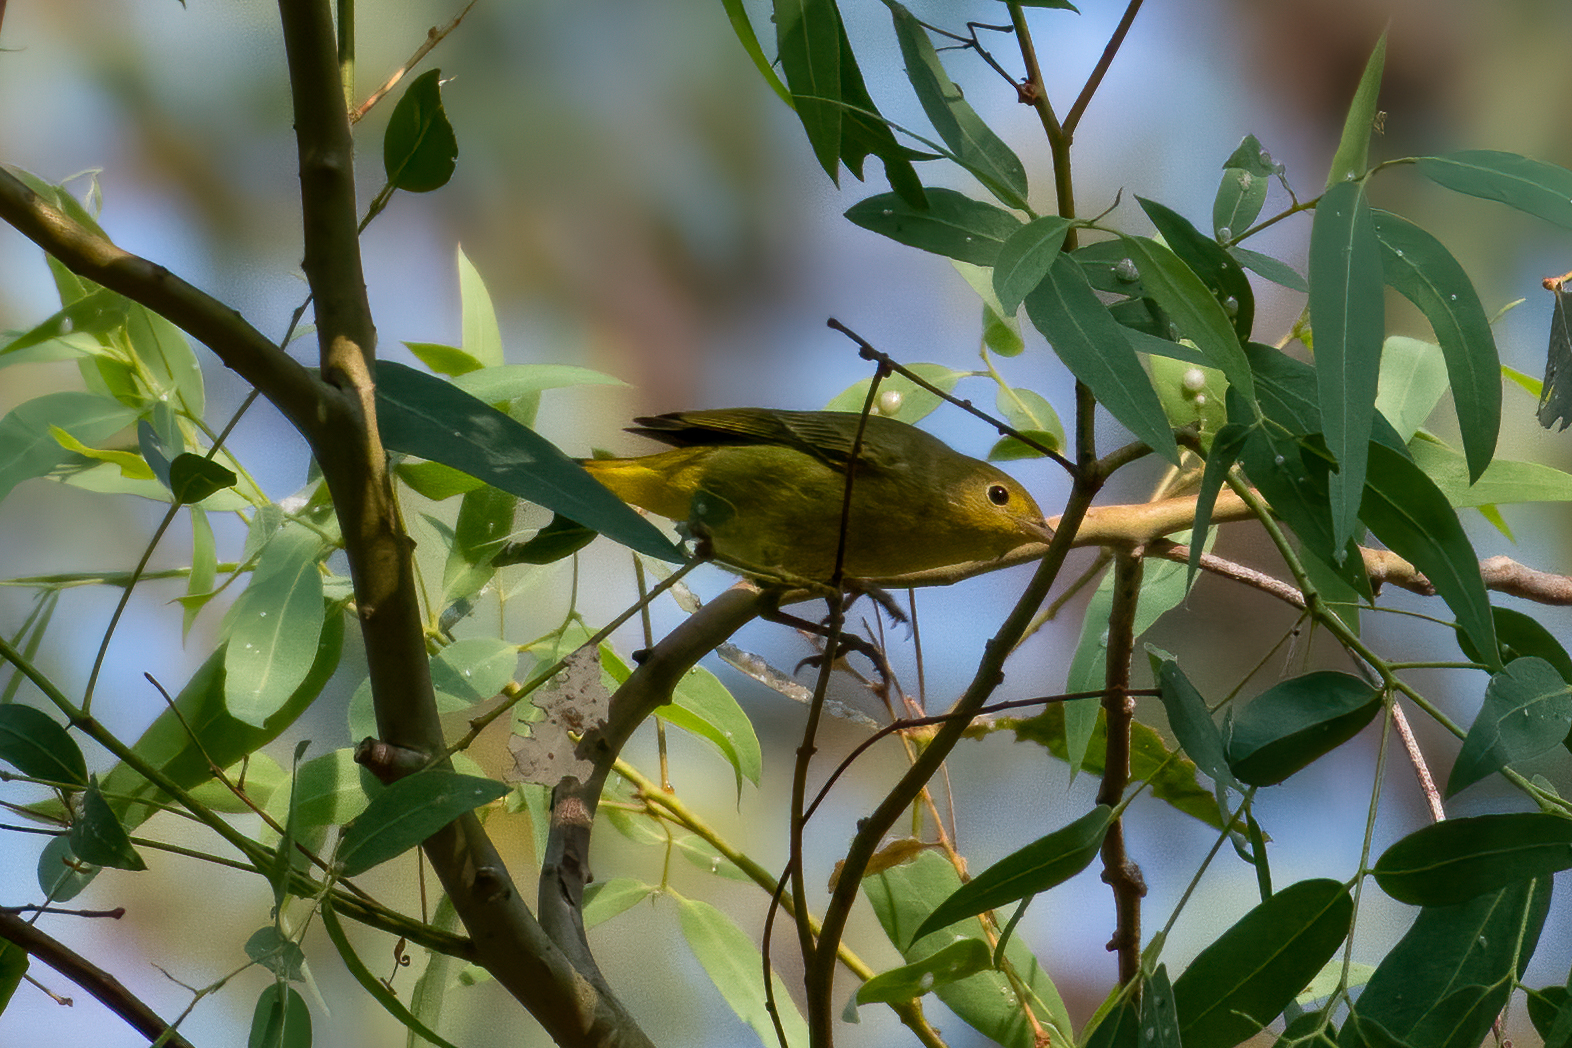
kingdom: Animalia
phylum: Chordata
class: Aves
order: Passeriformes
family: Parulidae
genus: Setophaga
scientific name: Setophaga petechia
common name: Yellow warbler
